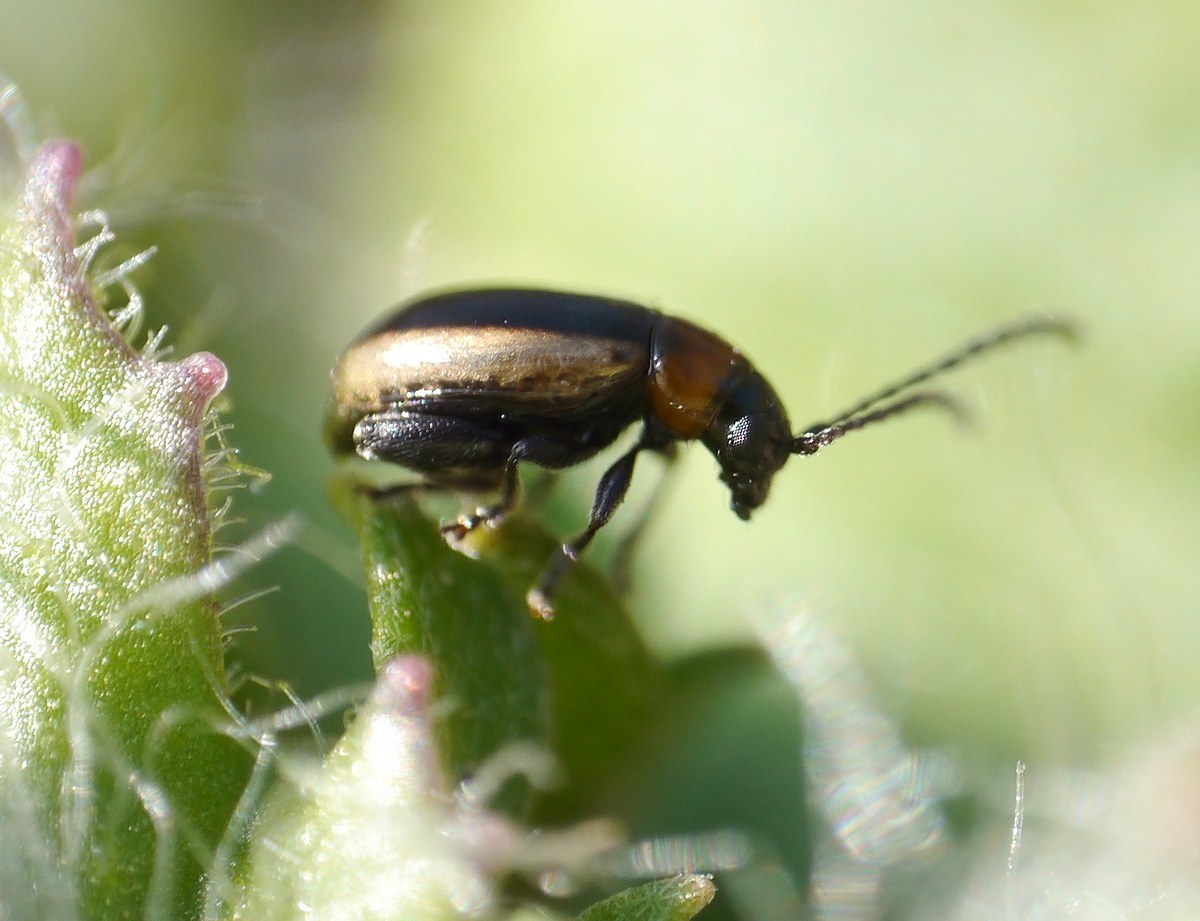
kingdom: Animalia
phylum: Arthropoda
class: Insecta
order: Coleoptera
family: Chrysomelidae
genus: Longitarsus
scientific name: Longitarsus dorsalis
